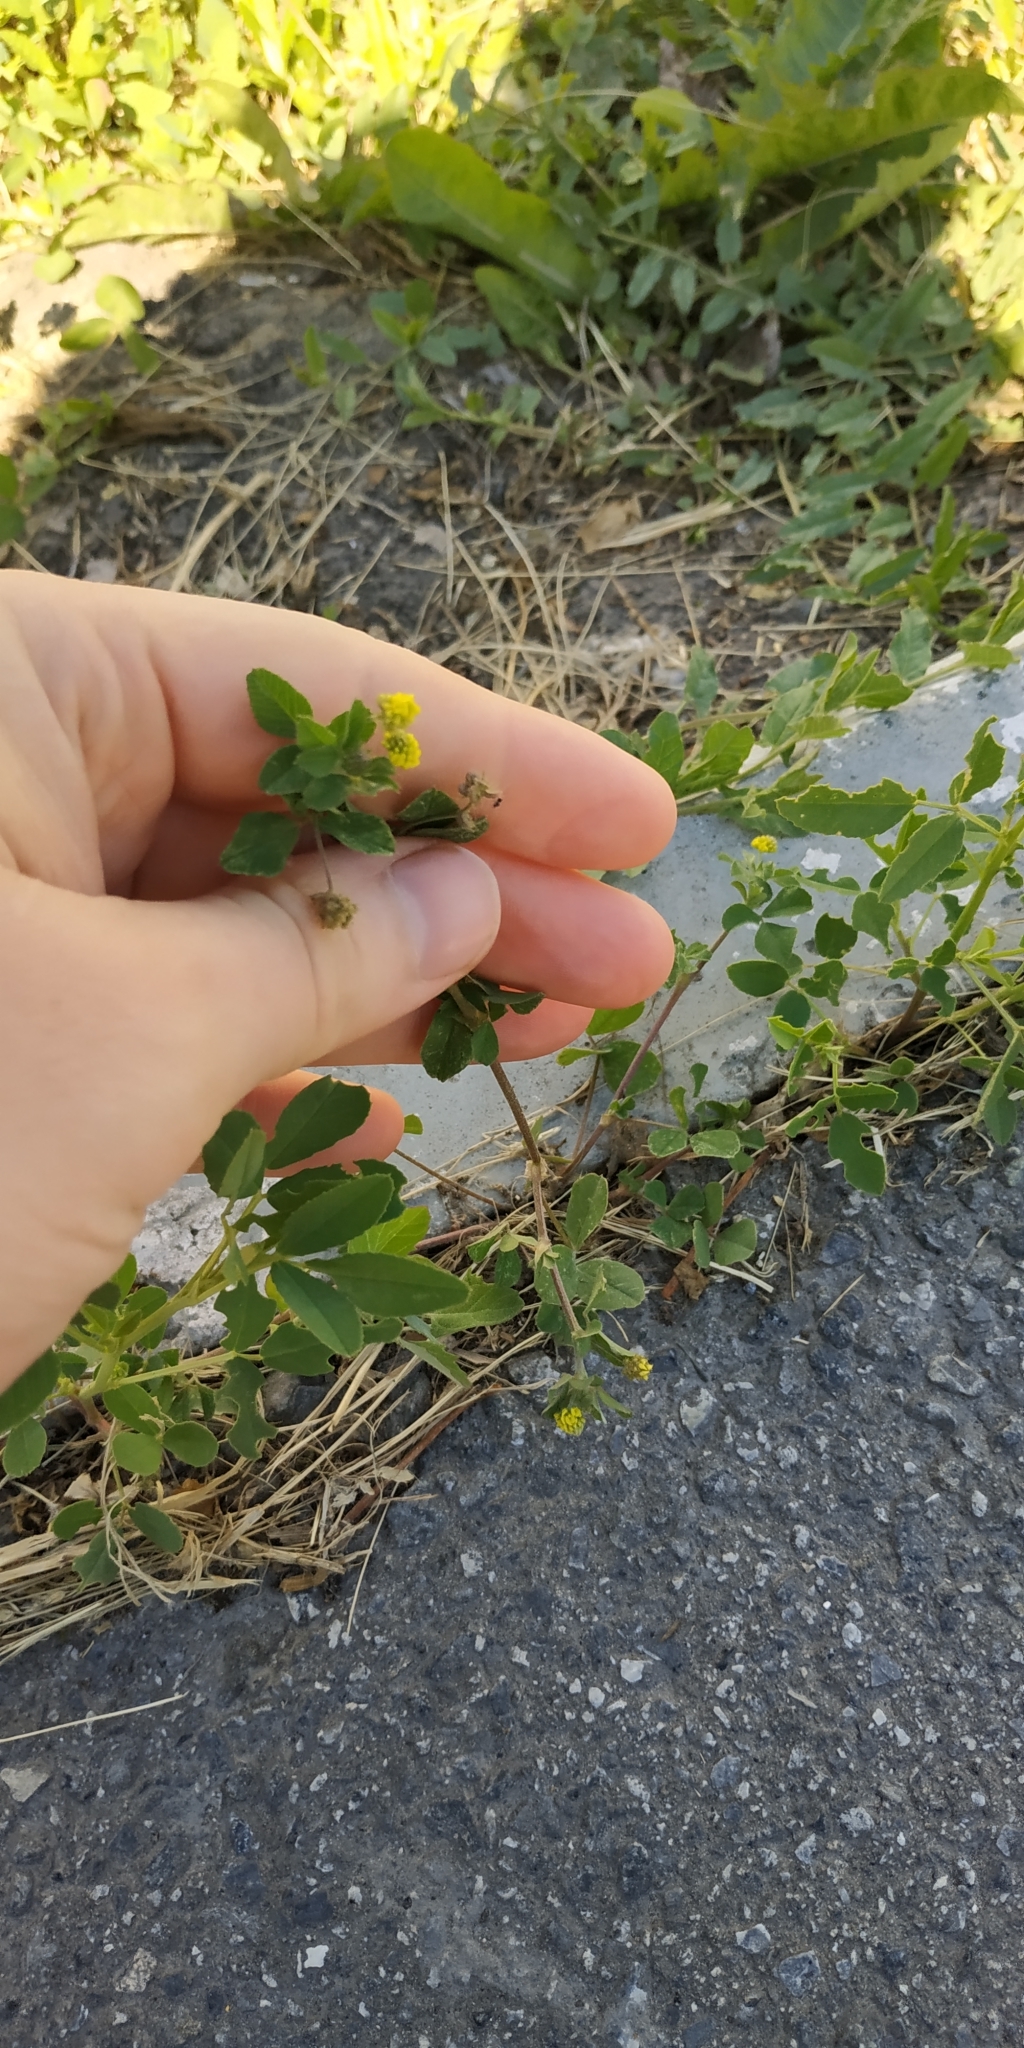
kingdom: Plantae
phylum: Tracheophyta
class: Magnoliopsida
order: Fabales
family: Fabaceae
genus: Medicago
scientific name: Medicago lupulina
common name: Black medick
